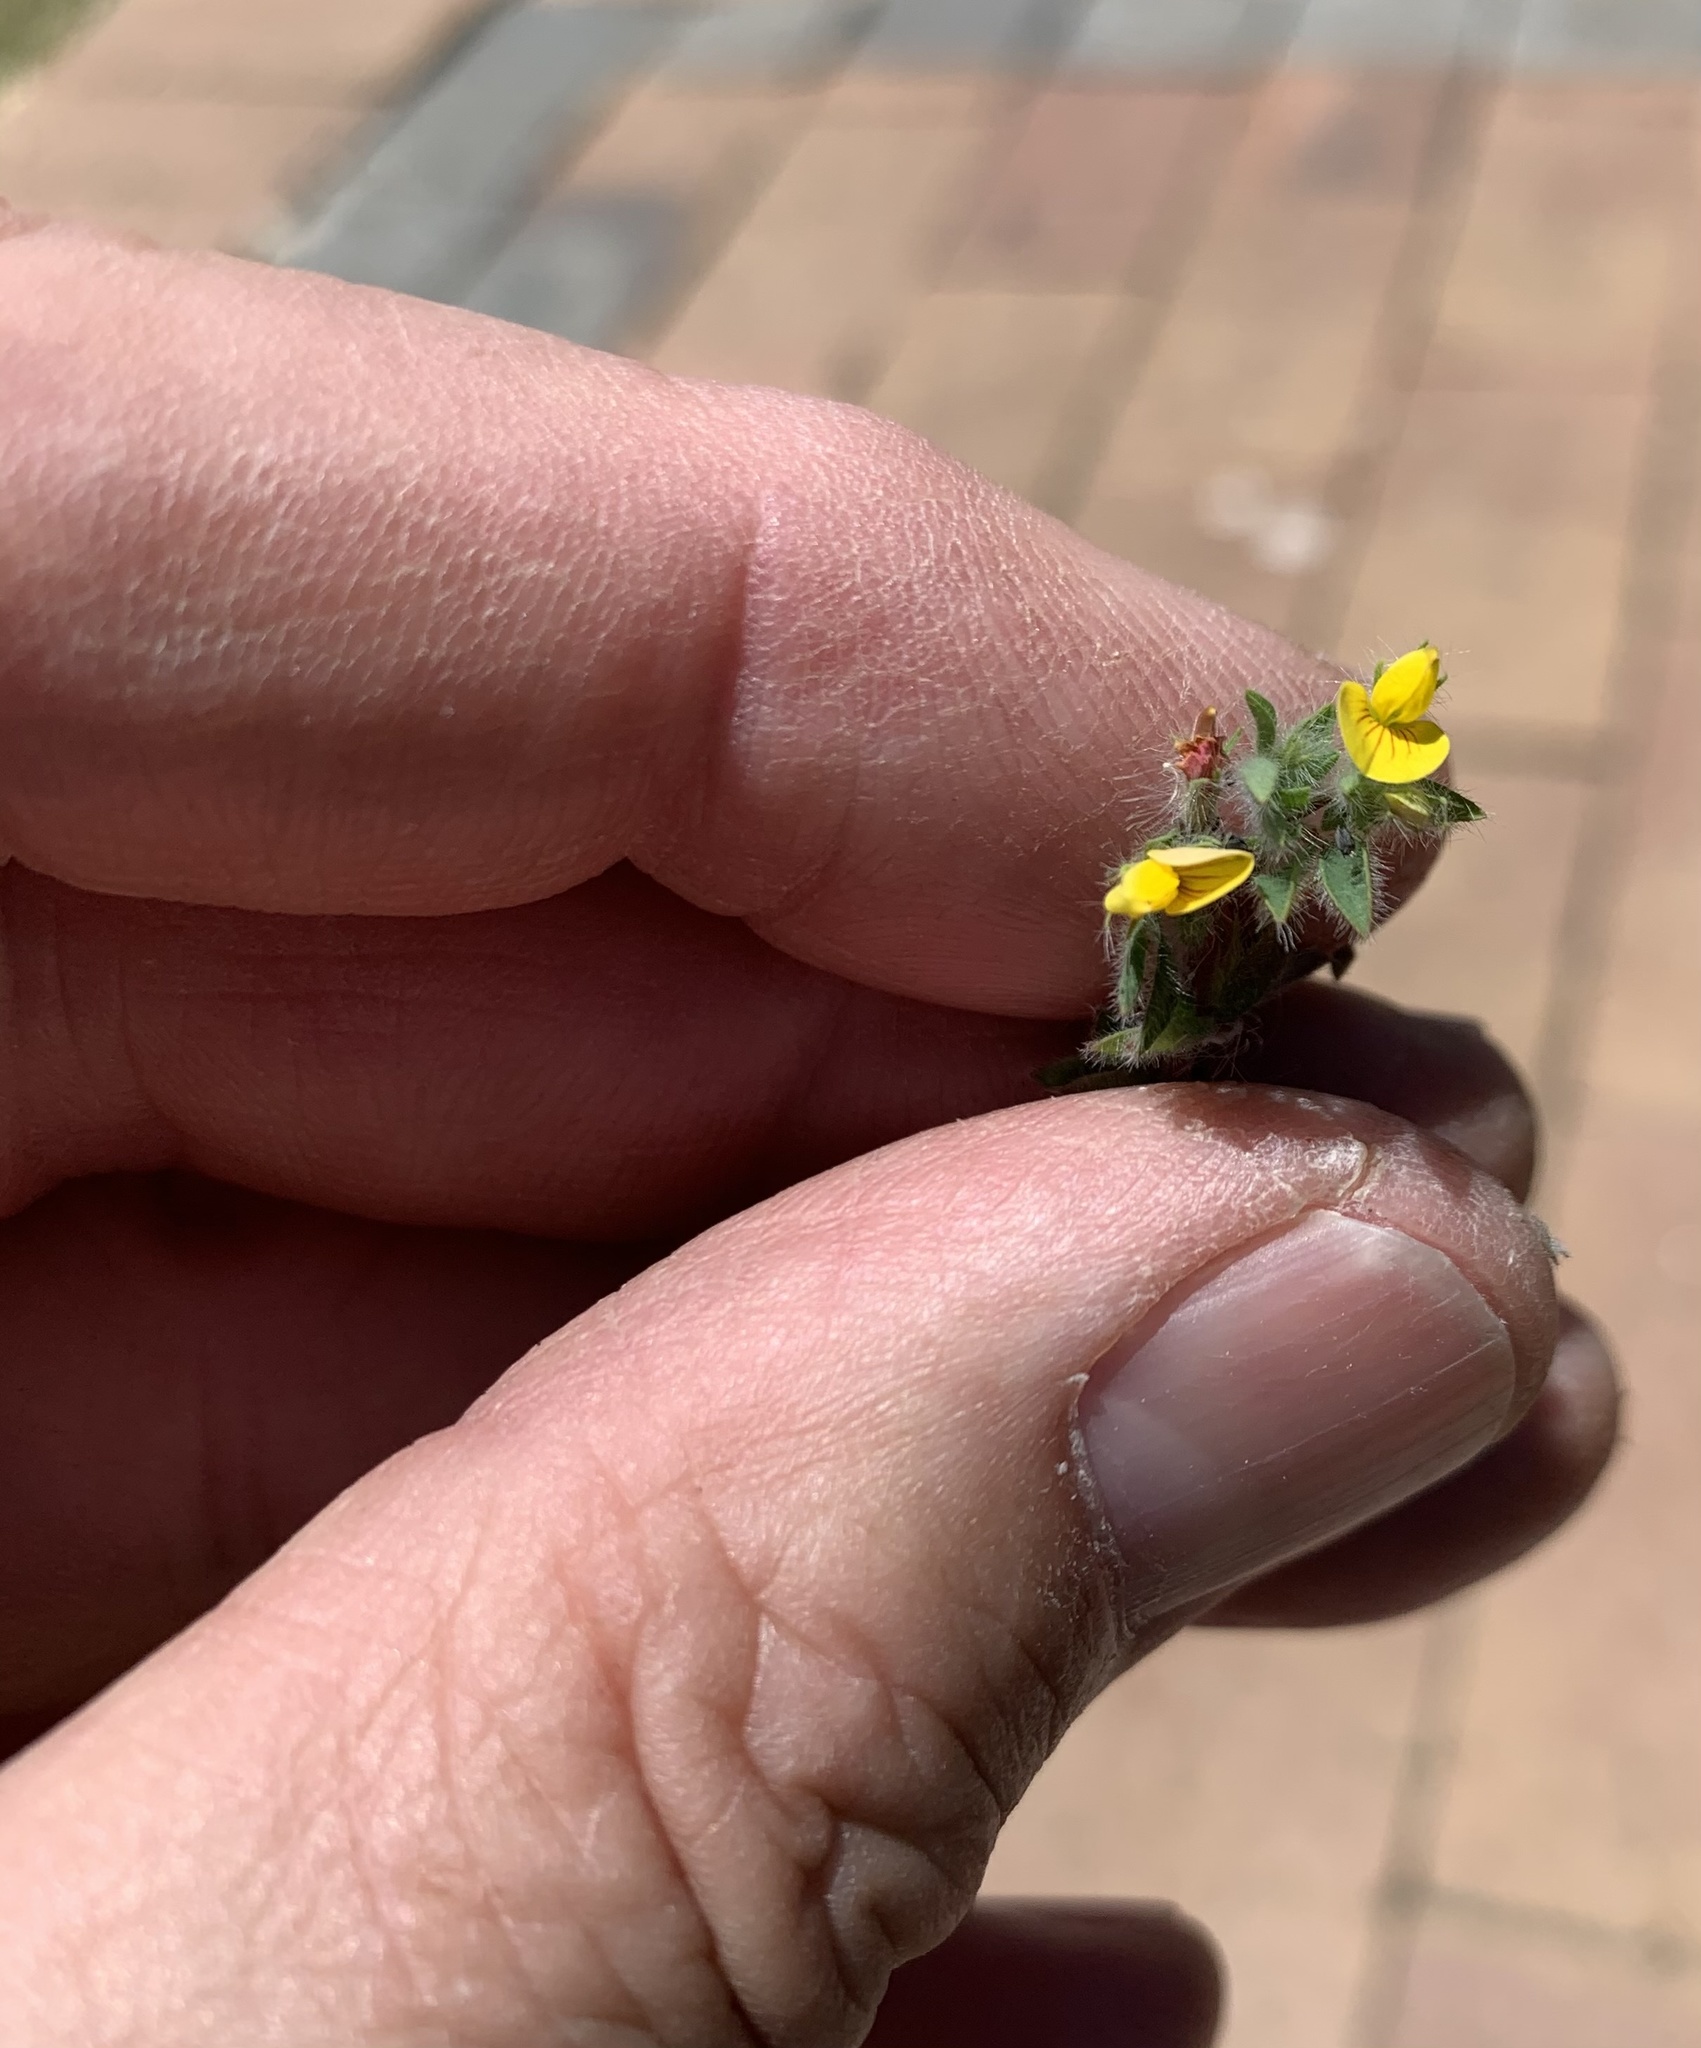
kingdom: Plantae
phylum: Tracheophyta
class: Magnoliopsida
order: Fabales
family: Fabaceae
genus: Lotus
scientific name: Lotus subbiflorus
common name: Hairy bird's-foot trefoil
